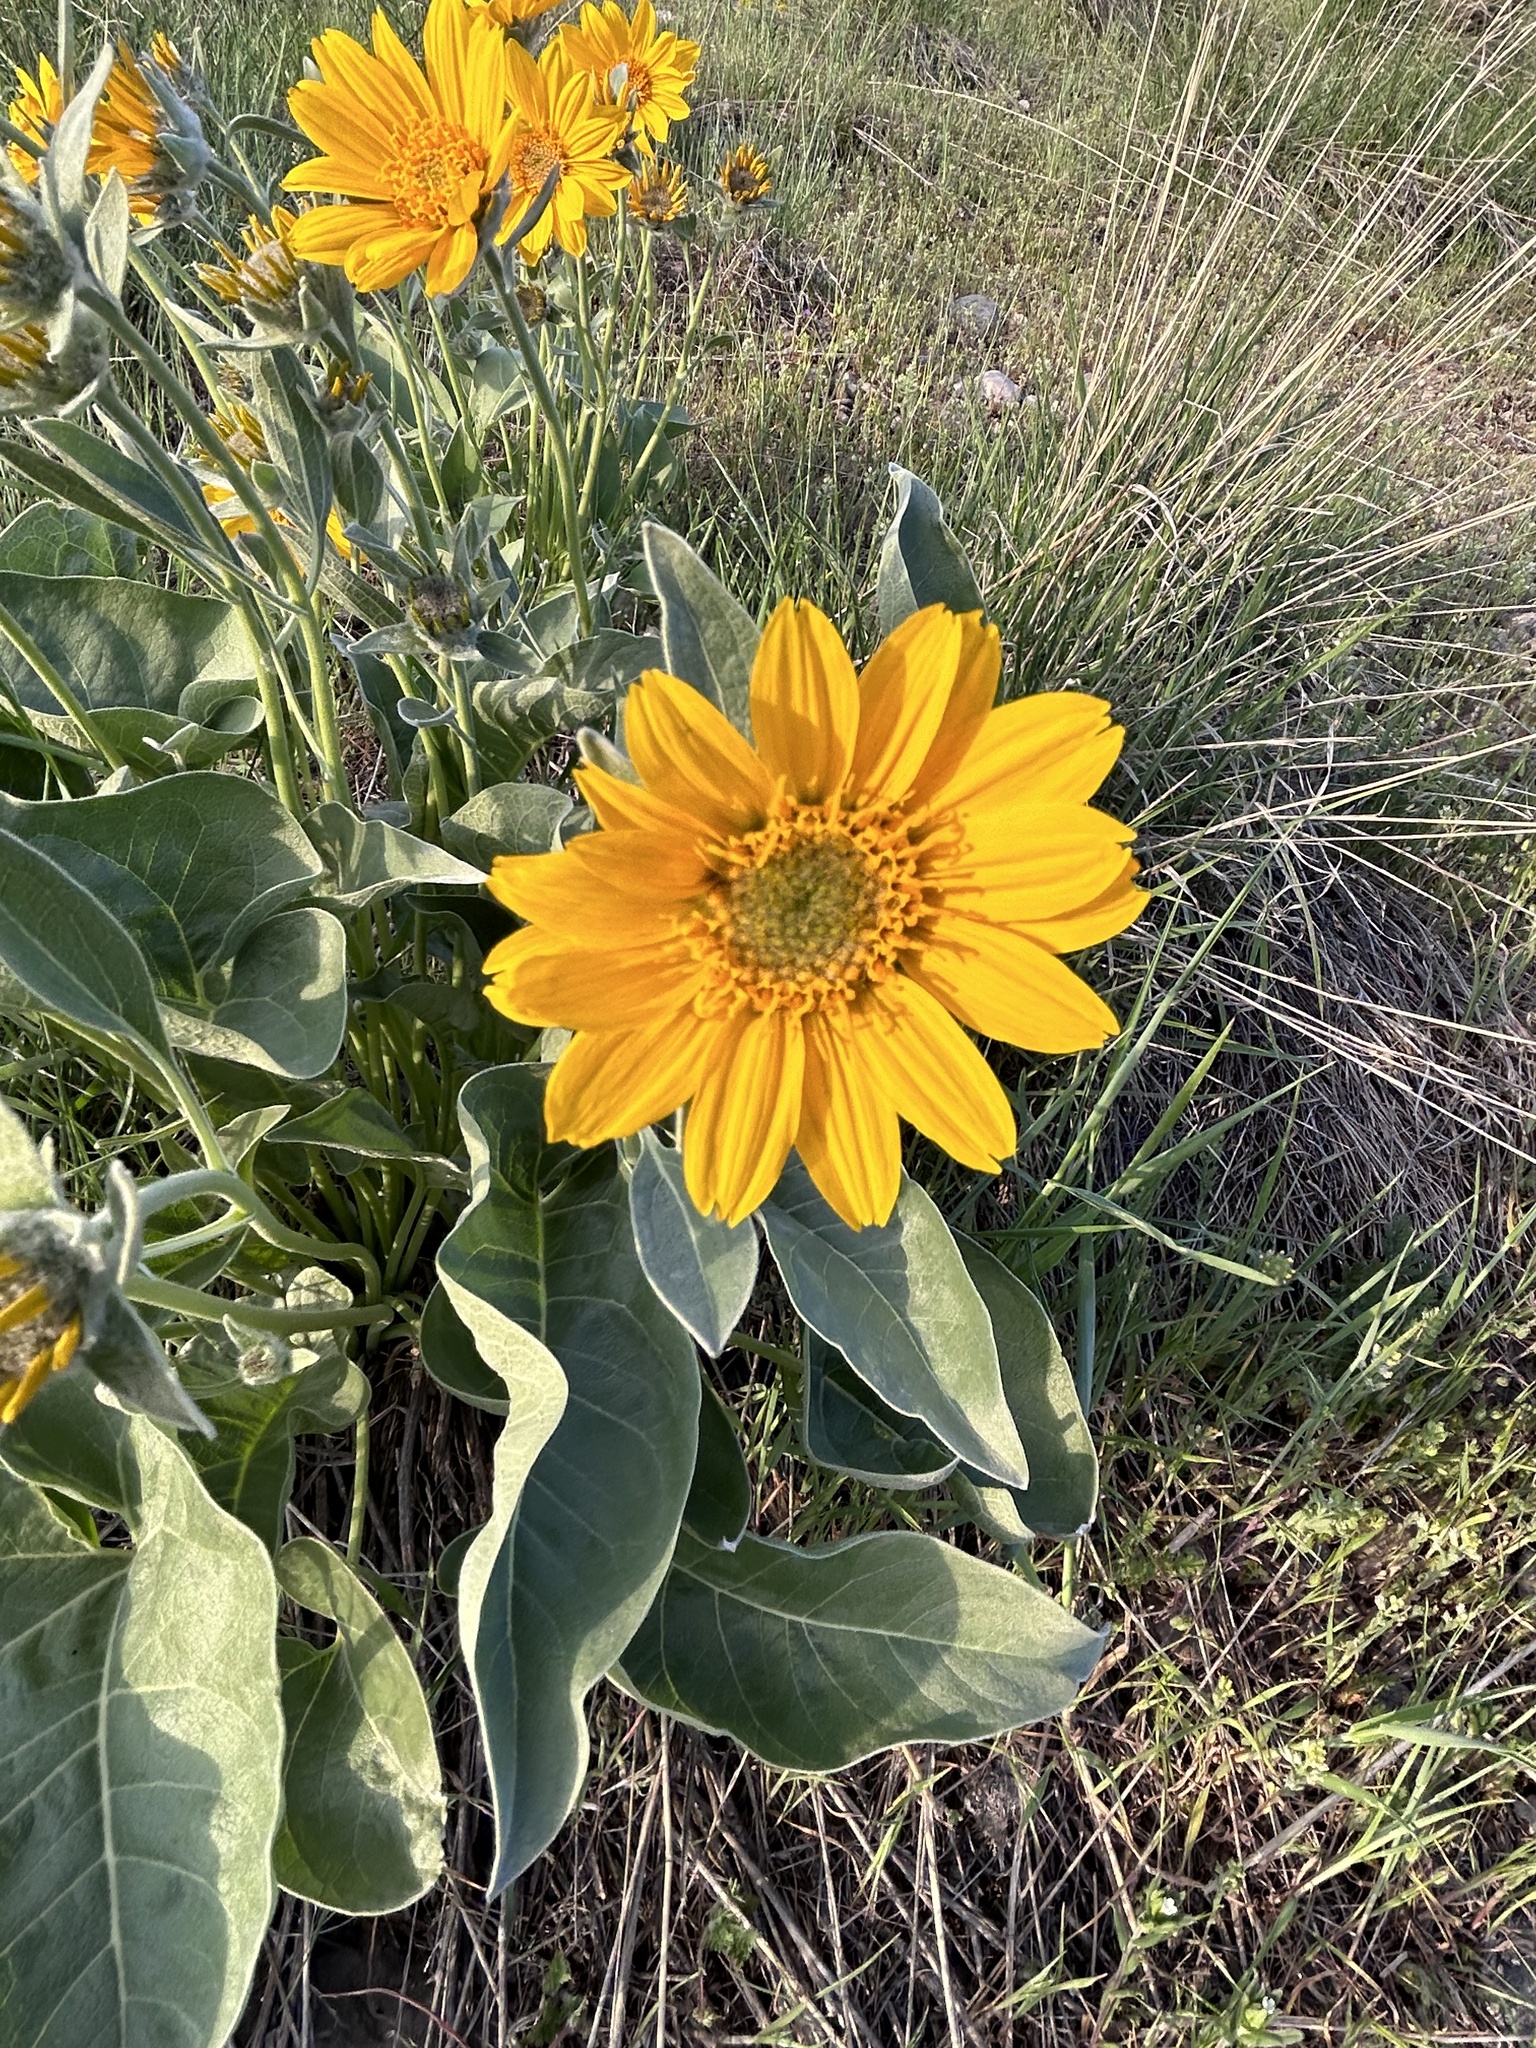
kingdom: Plantae
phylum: Tracheophyta
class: Magnoliopsida
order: Asterales
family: Asteraceae
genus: Wyethia
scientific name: Wyethia sagittata
